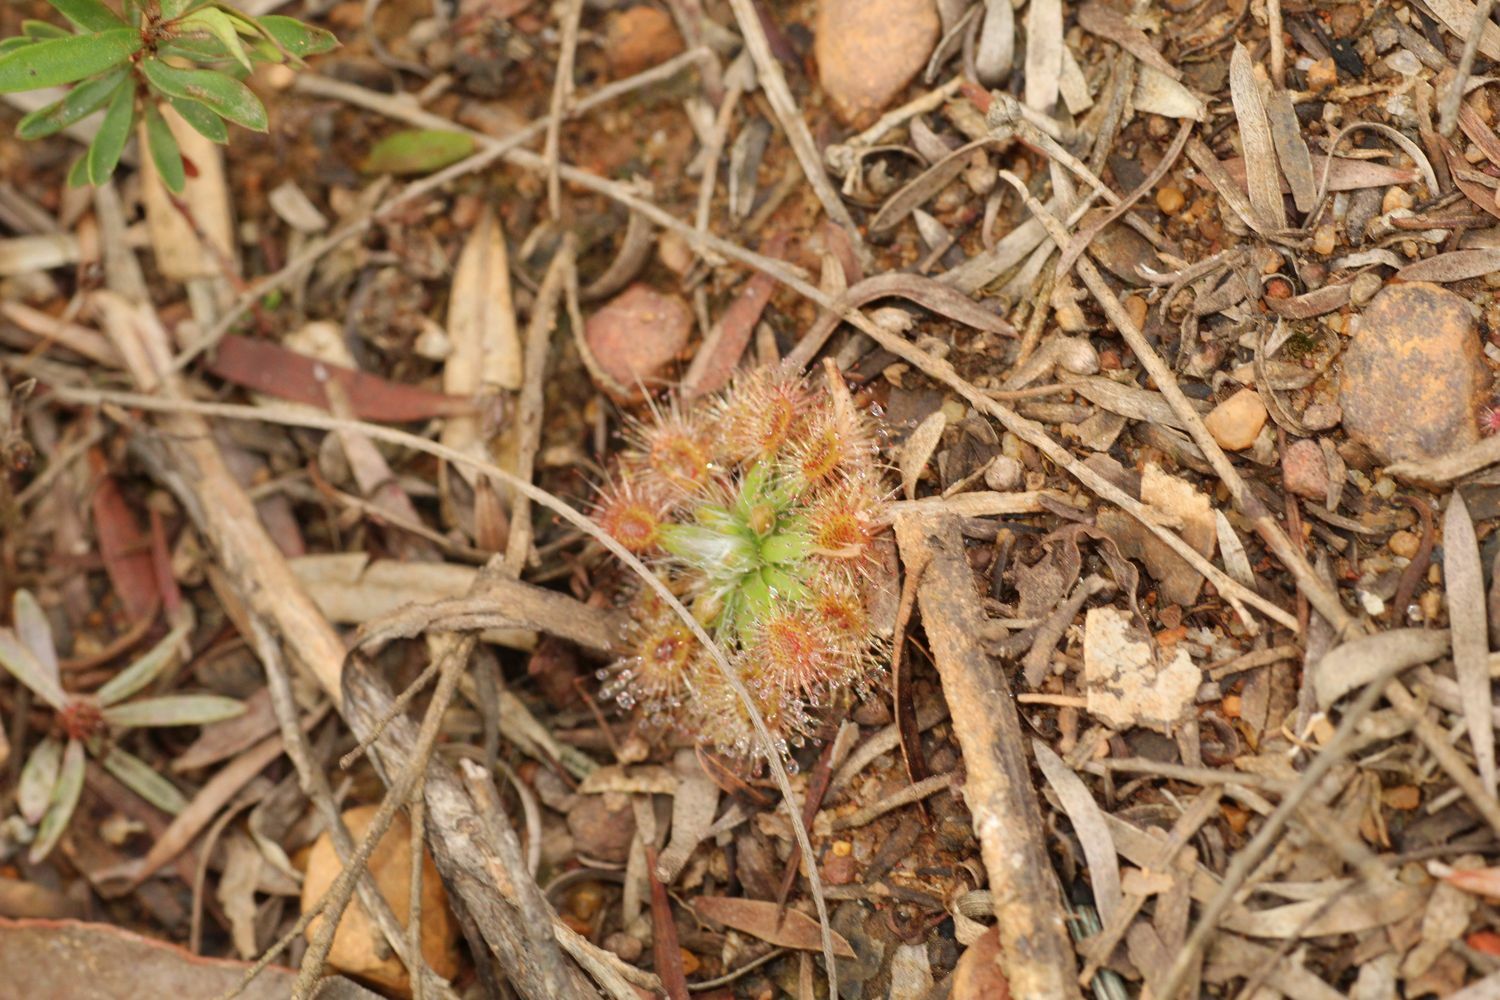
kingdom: Plantae
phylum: Tracheophyta
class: Magnoliopsida
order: Caryophyllales
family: Droseraceae
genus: Drosera
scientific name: Drosera pulchella
